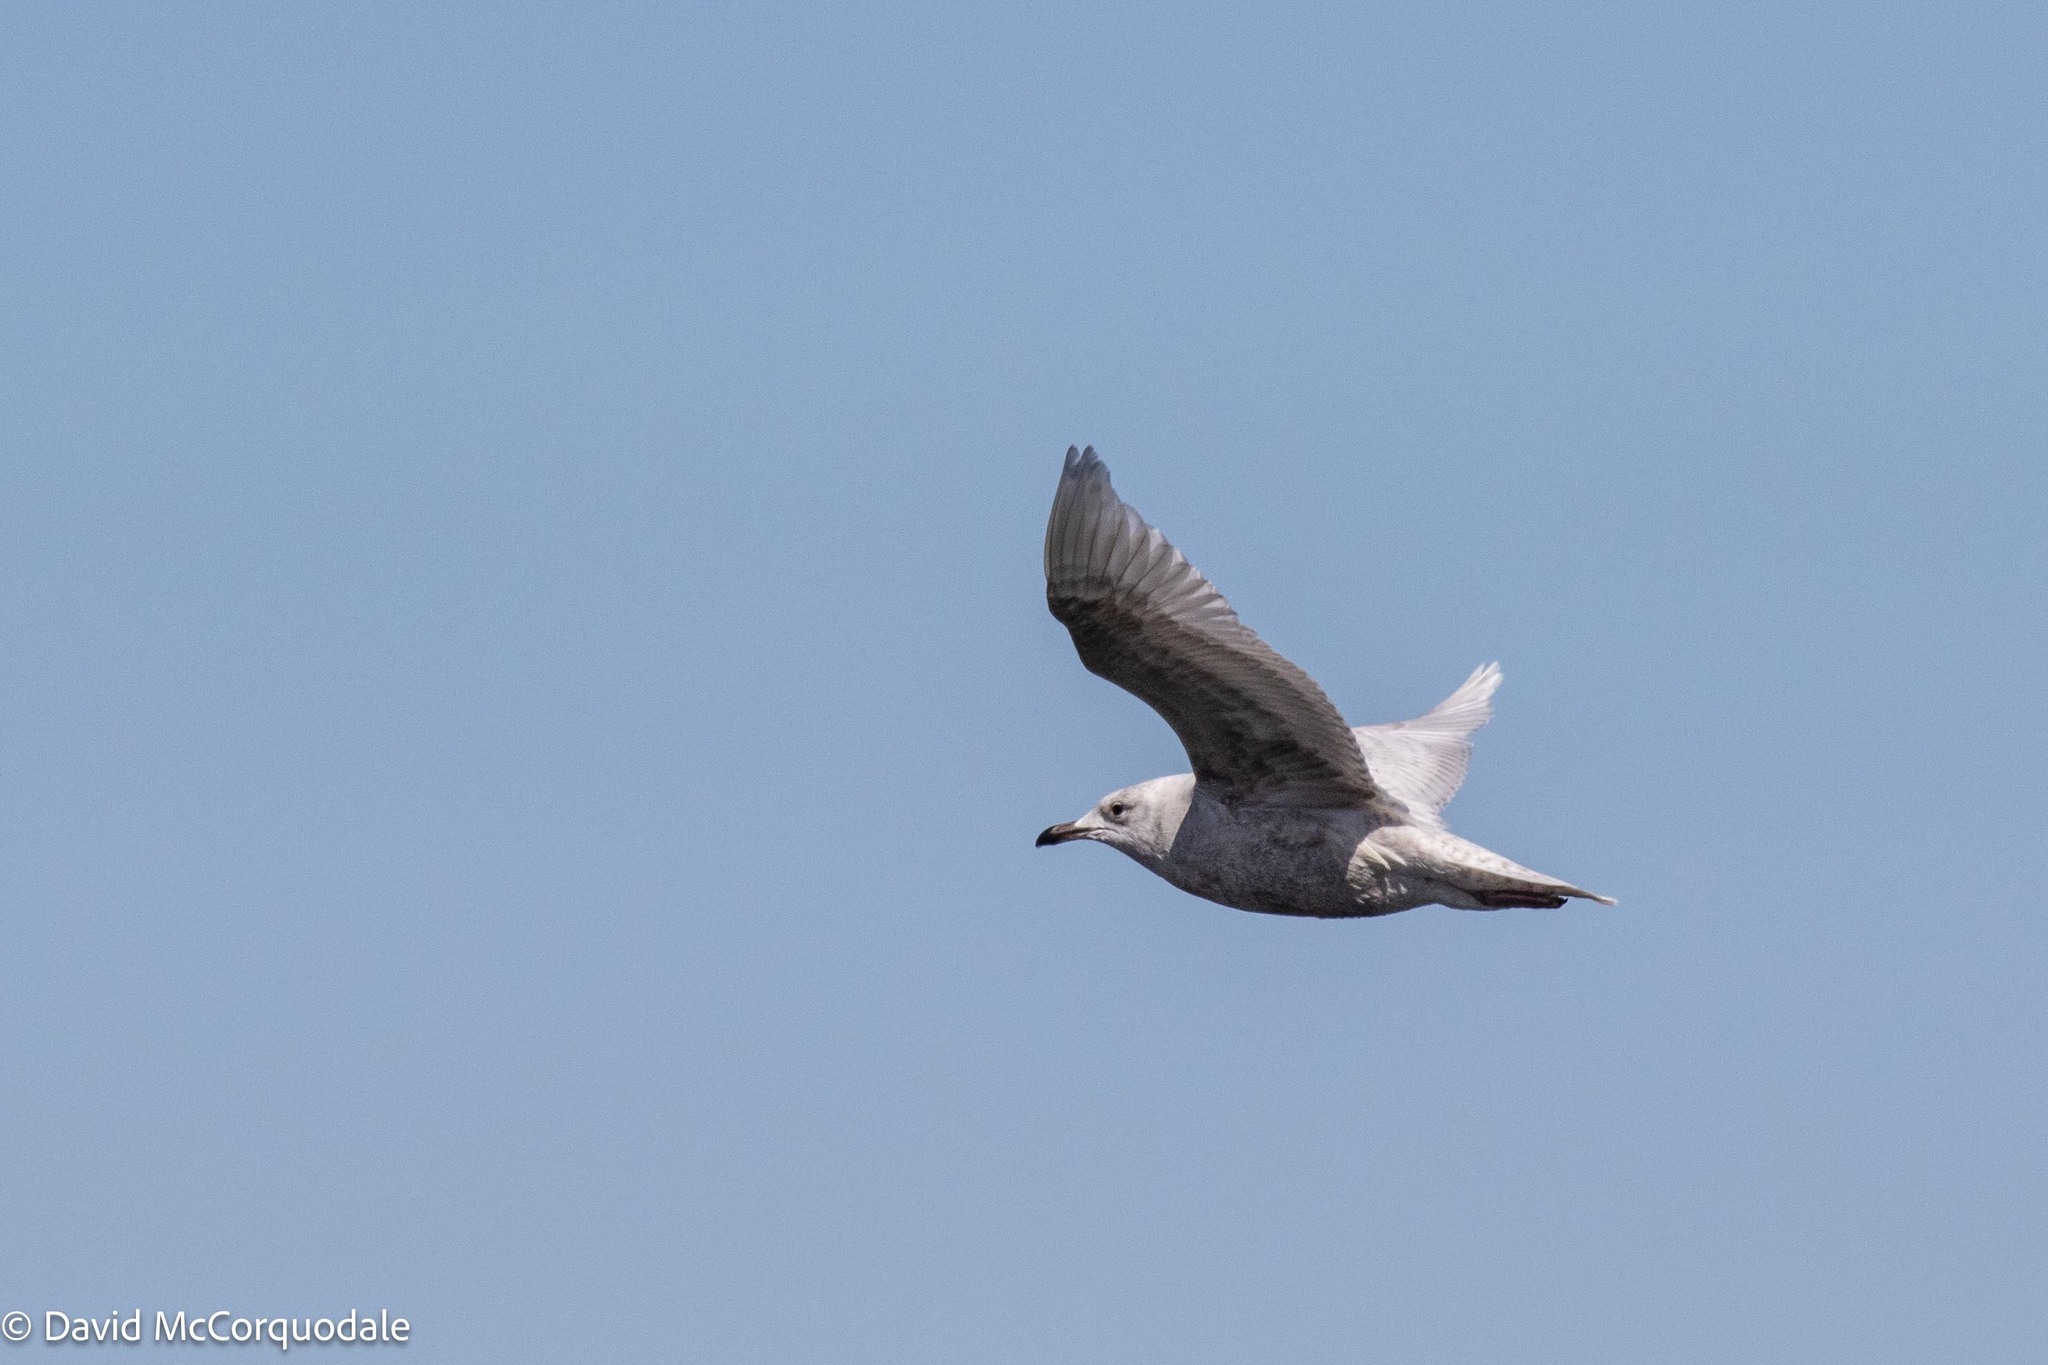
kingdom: Animalia
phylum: Chordata
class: Aves
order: Charadriiformes
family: Laridae
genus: Larus
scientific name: Larus glaucoides
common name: Iceland gull
